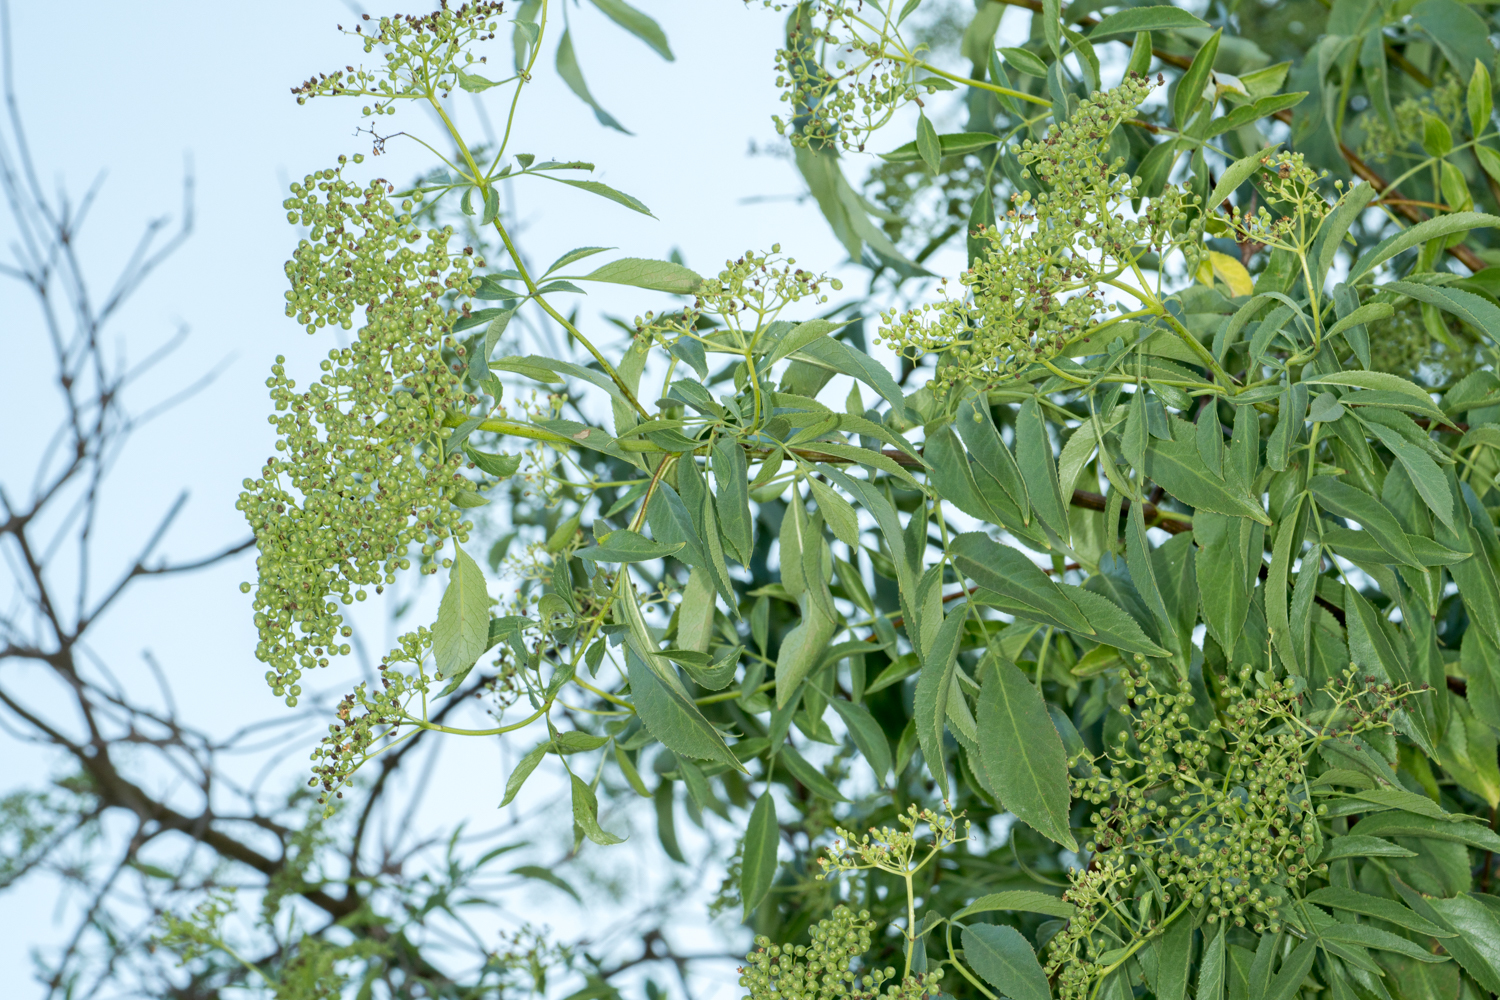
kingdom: Plantae
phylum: Tracheophyta
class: Magnoliopsida
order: Dipsacales
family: Viburnaceae
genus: Sambucus
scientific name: Sambucus cerulea
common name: Blue elder
